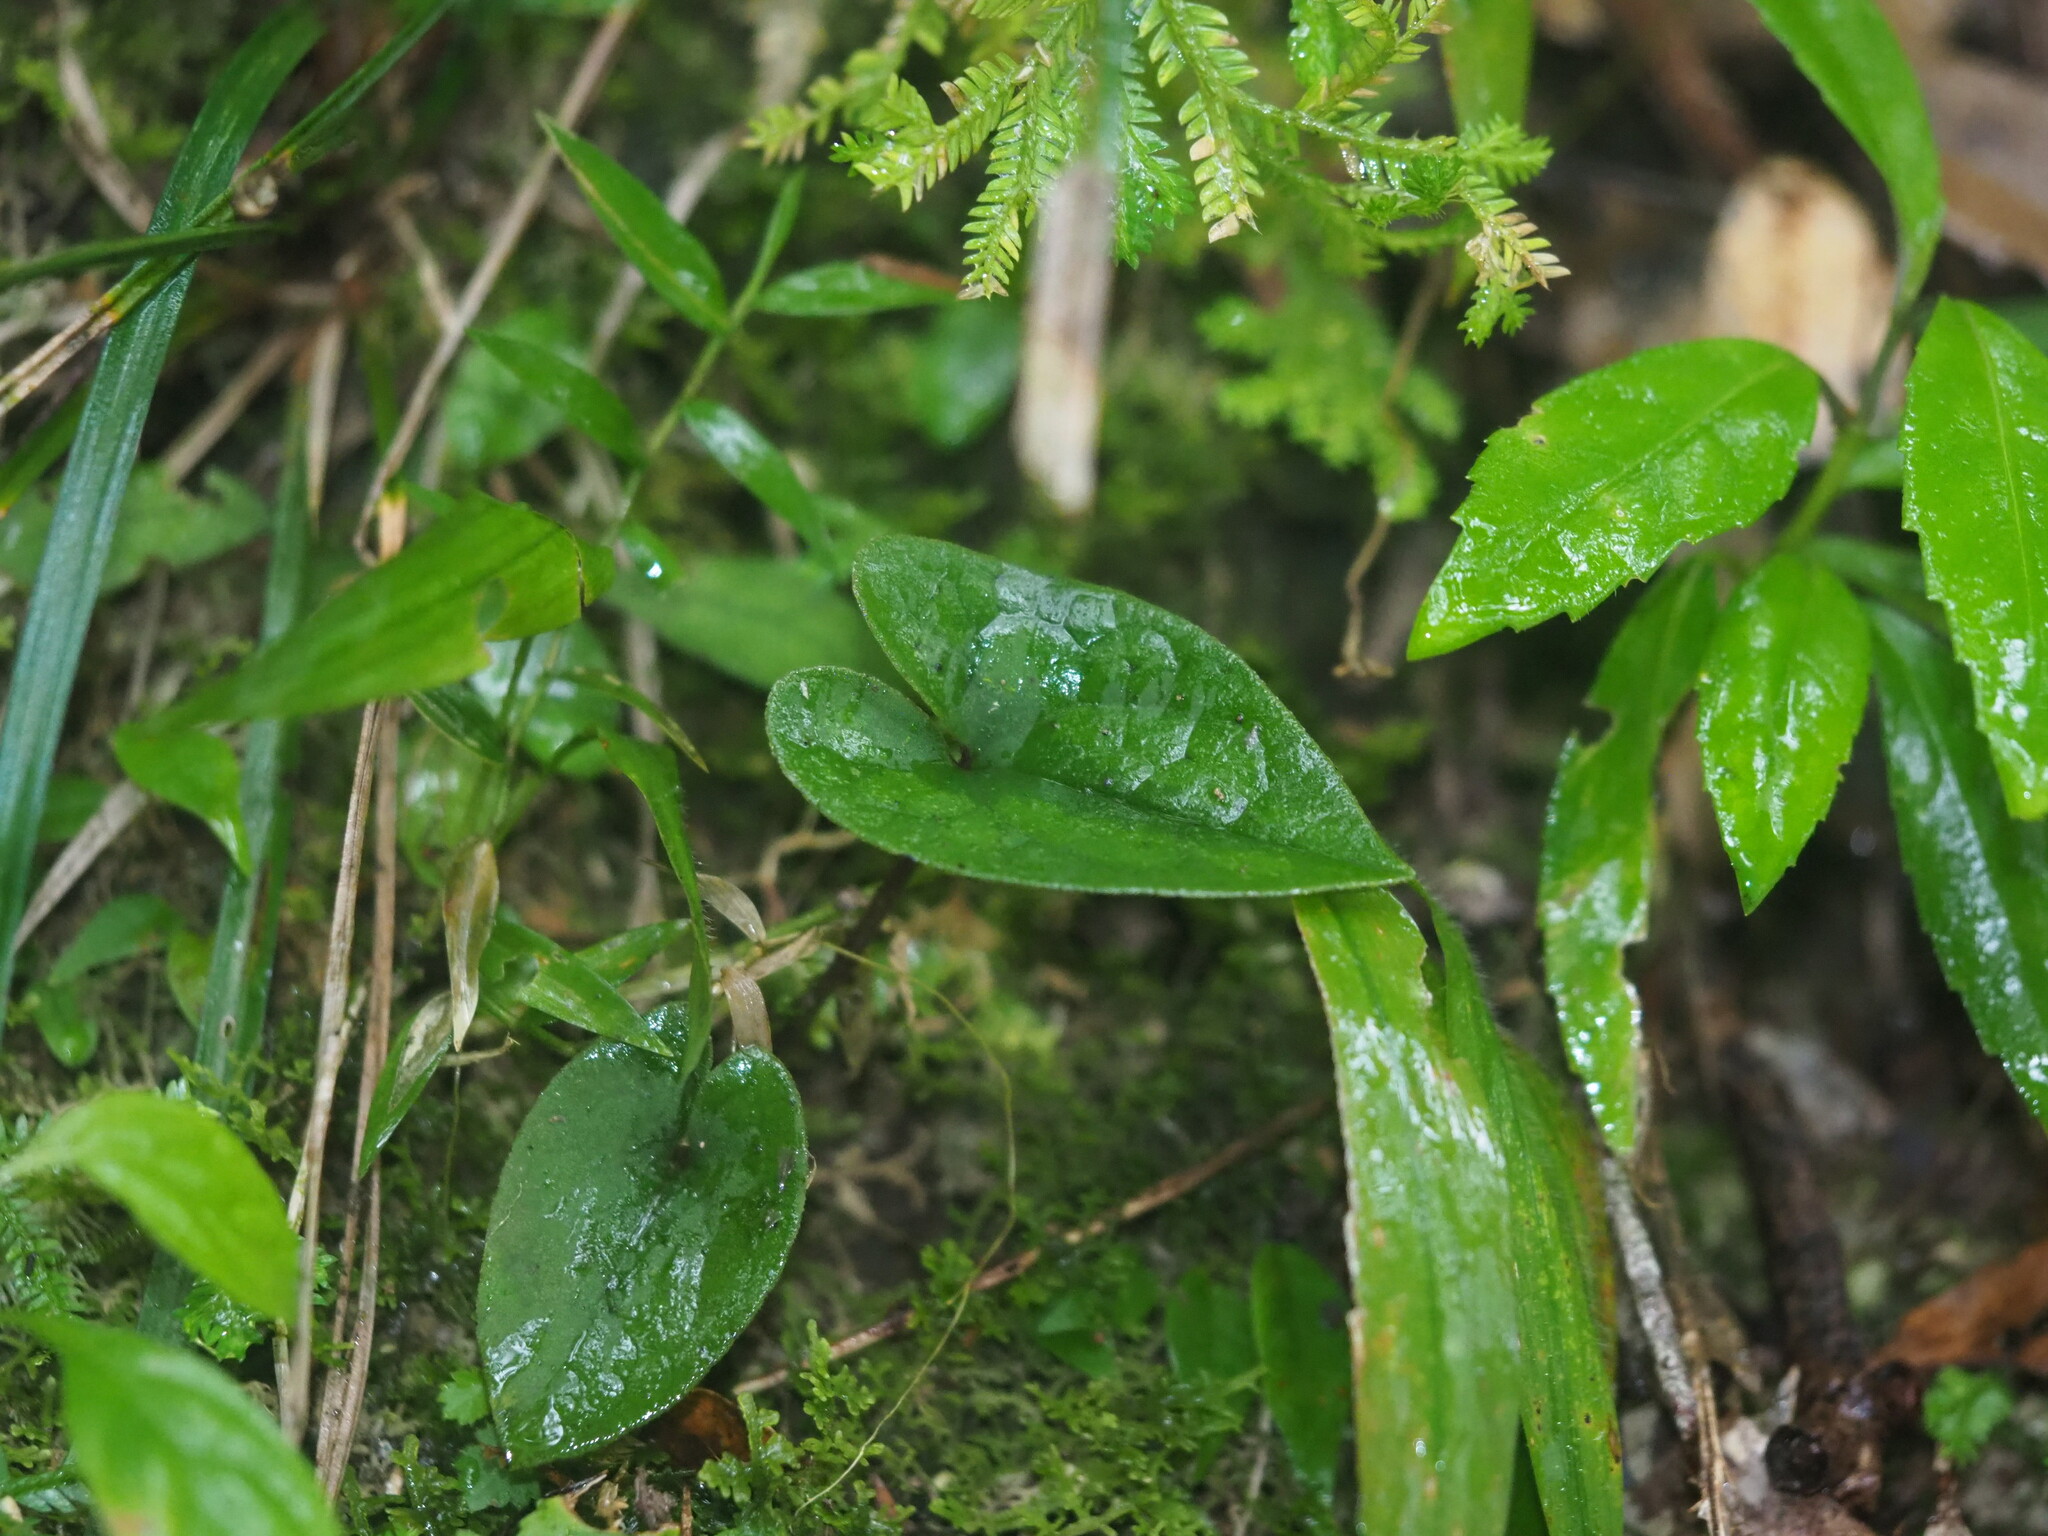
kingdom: Plantae
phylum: Tracheophyta
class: Magnoliopsida
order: Piperales
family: Aristolochiaceae
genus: Asarum
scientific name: Asarum caudigerum
